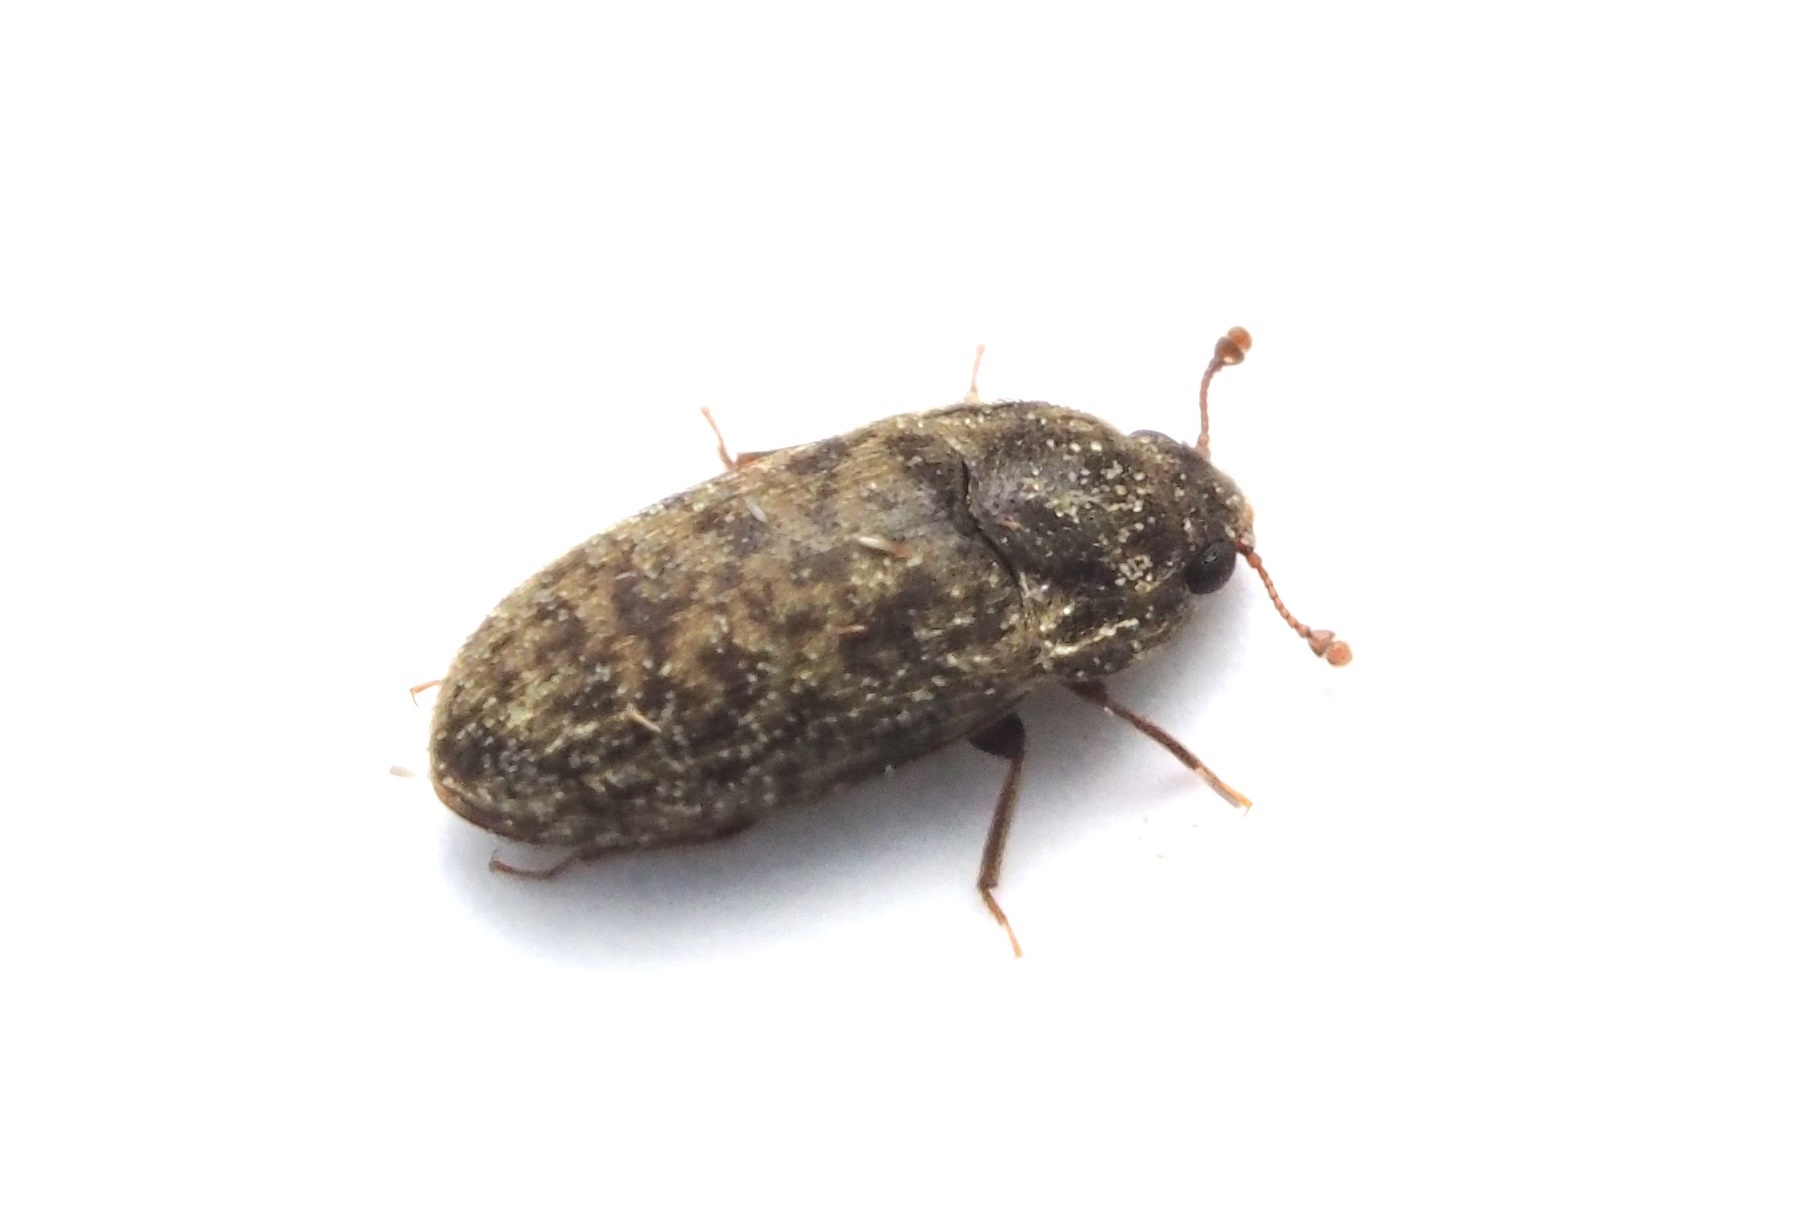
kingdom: Animalia
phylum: Arthropoda
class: Insecta
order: Coleoptera
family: Biphyllidae
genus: Biphyllus
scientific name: Biphyllus marmoratus
